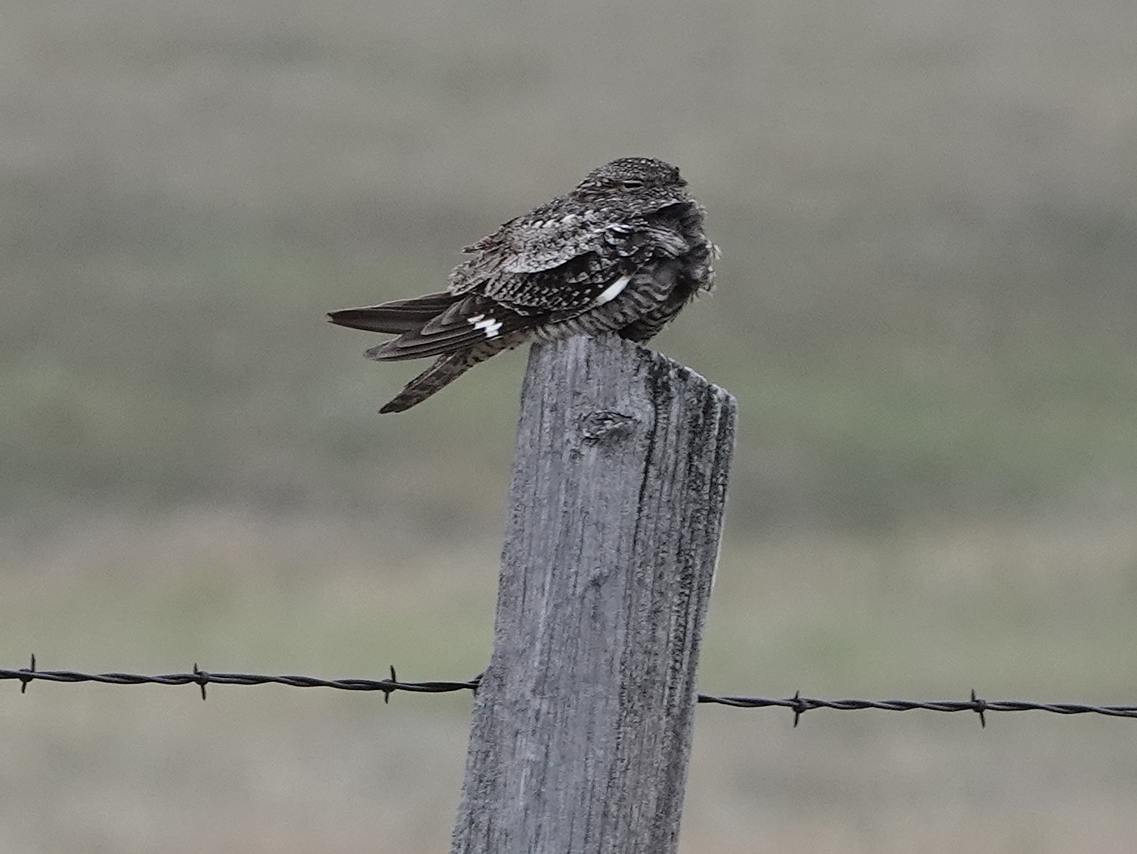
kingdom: Animalia
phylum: Chordata
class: Aves
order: Caprimulgiformes
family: Caprimulgidae
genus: Chordeiles
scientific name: Chordeiles minor
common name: Common nighthawk
